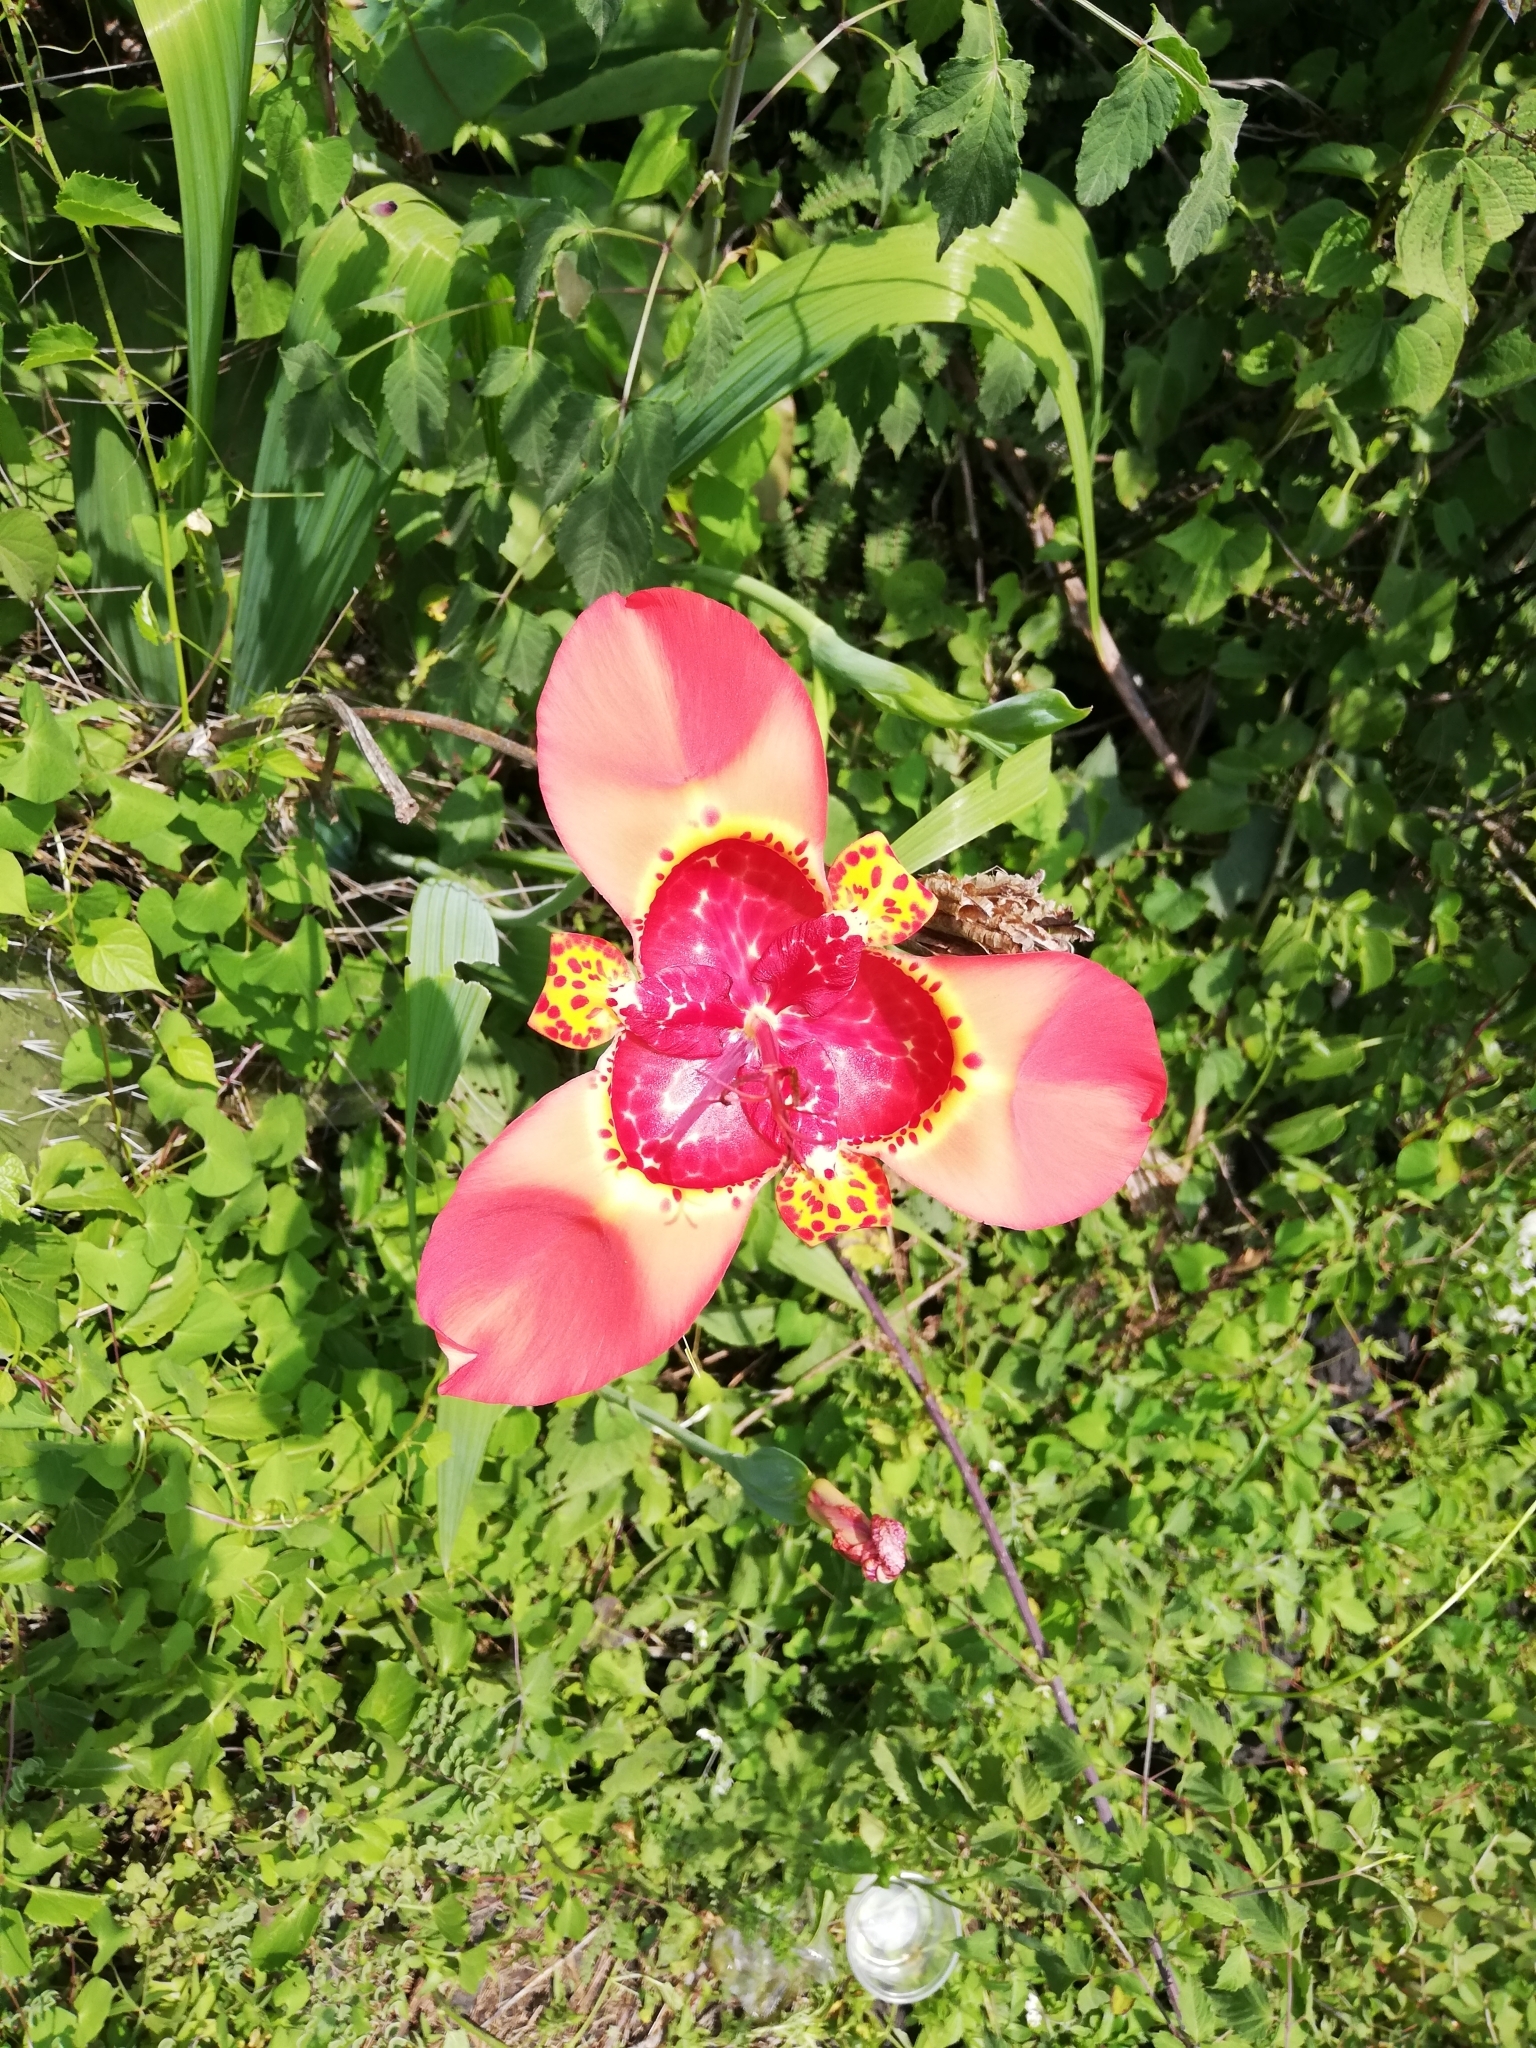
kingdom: Plantae
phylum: Tracheophyta
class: Liliopsida
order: Asparagales
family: Iridaceae
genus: Tigridia
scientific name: Tigridia pavonia
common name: Peacock-flower
